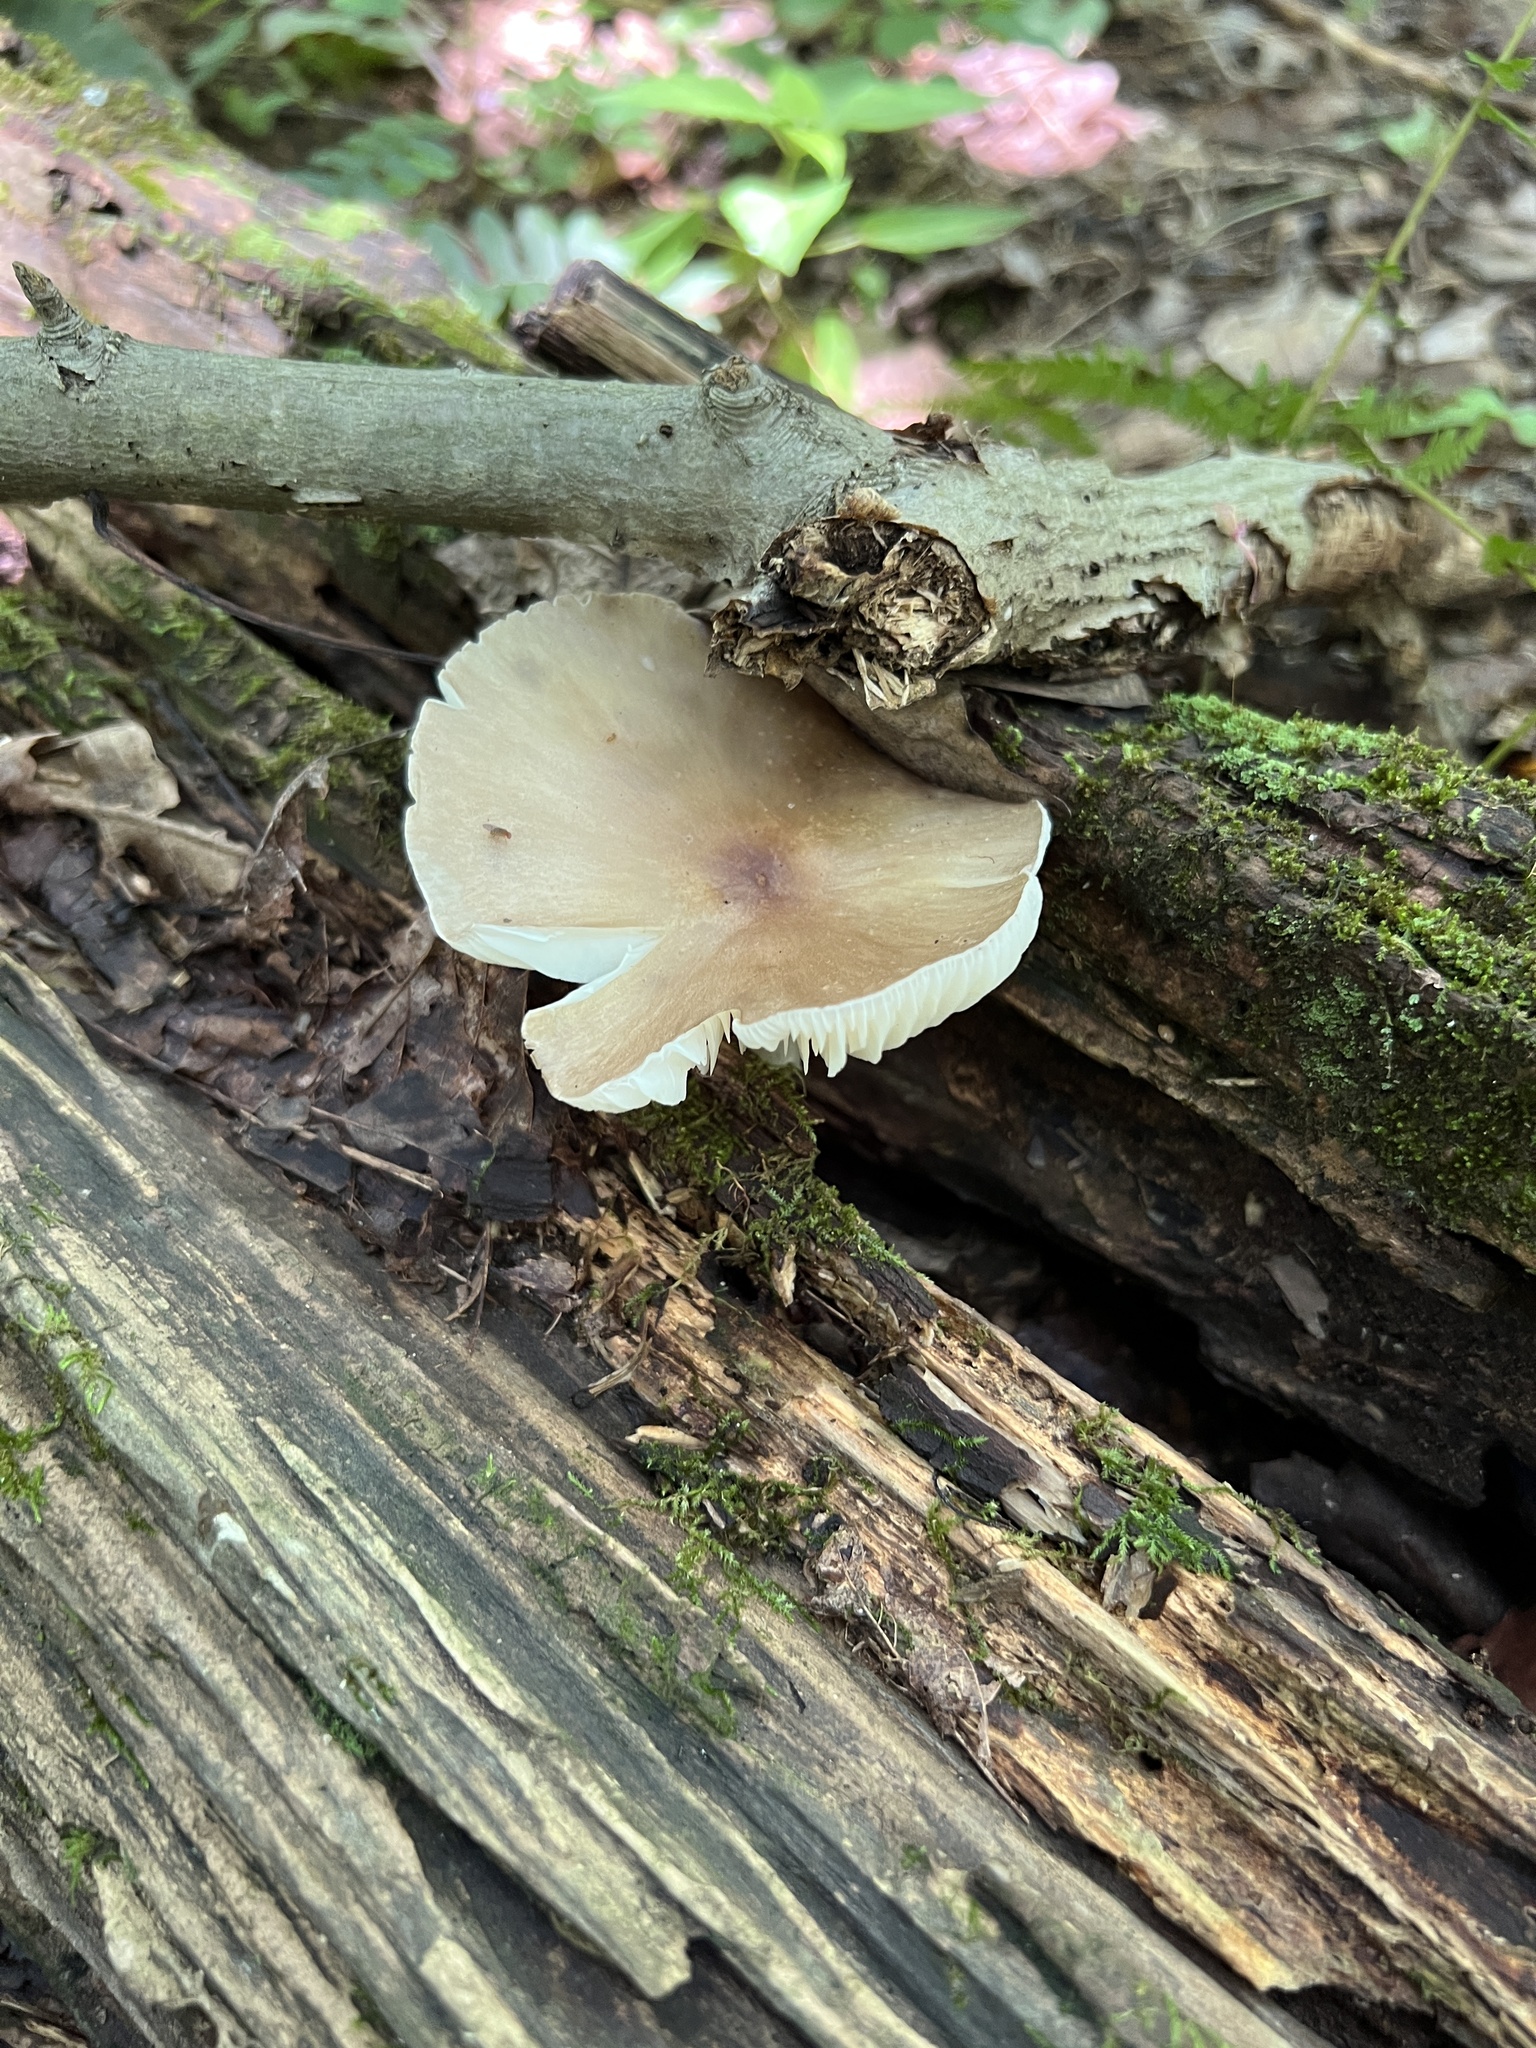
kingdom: Fungi
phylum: Basidiomycota
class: Agaricomycetes
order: Agaricales
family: Tricholomataceae
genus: Megacollybia
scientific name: Megacollybia rodmanii
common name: Eastern american platterful mushroom
